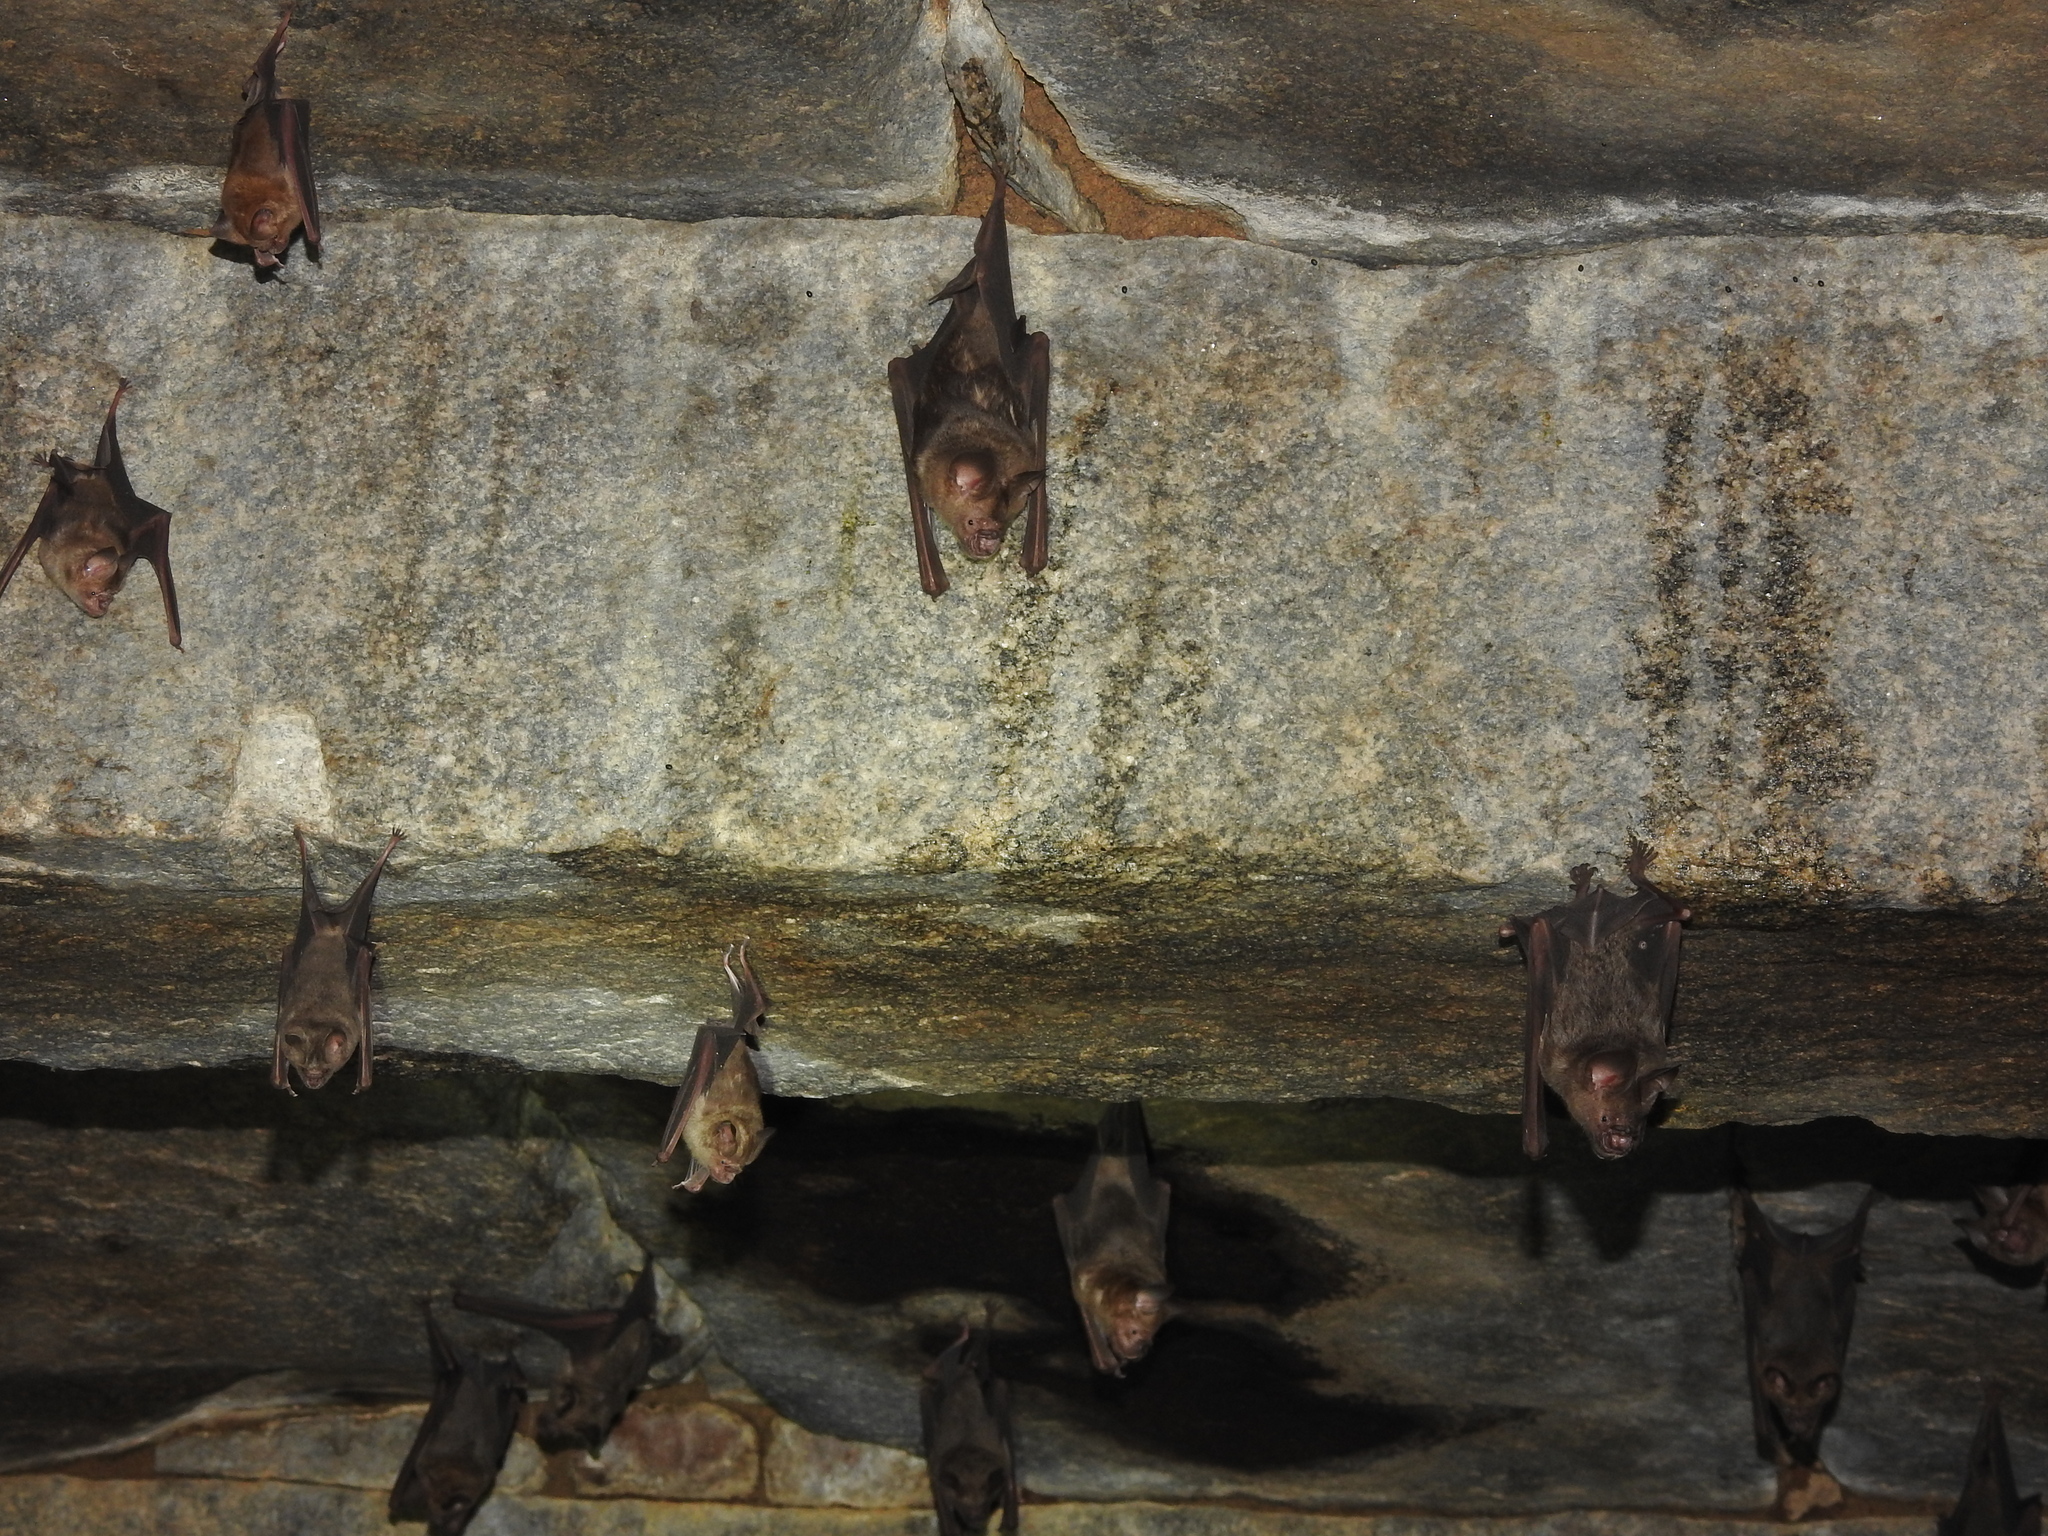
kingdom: Animalia
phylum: Chordata
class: Mammalia
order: Chiroptera
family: Hipposideridae
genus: Hipposideros
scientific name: Hipposideros speoris
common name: Schneider's roundleaf bat
